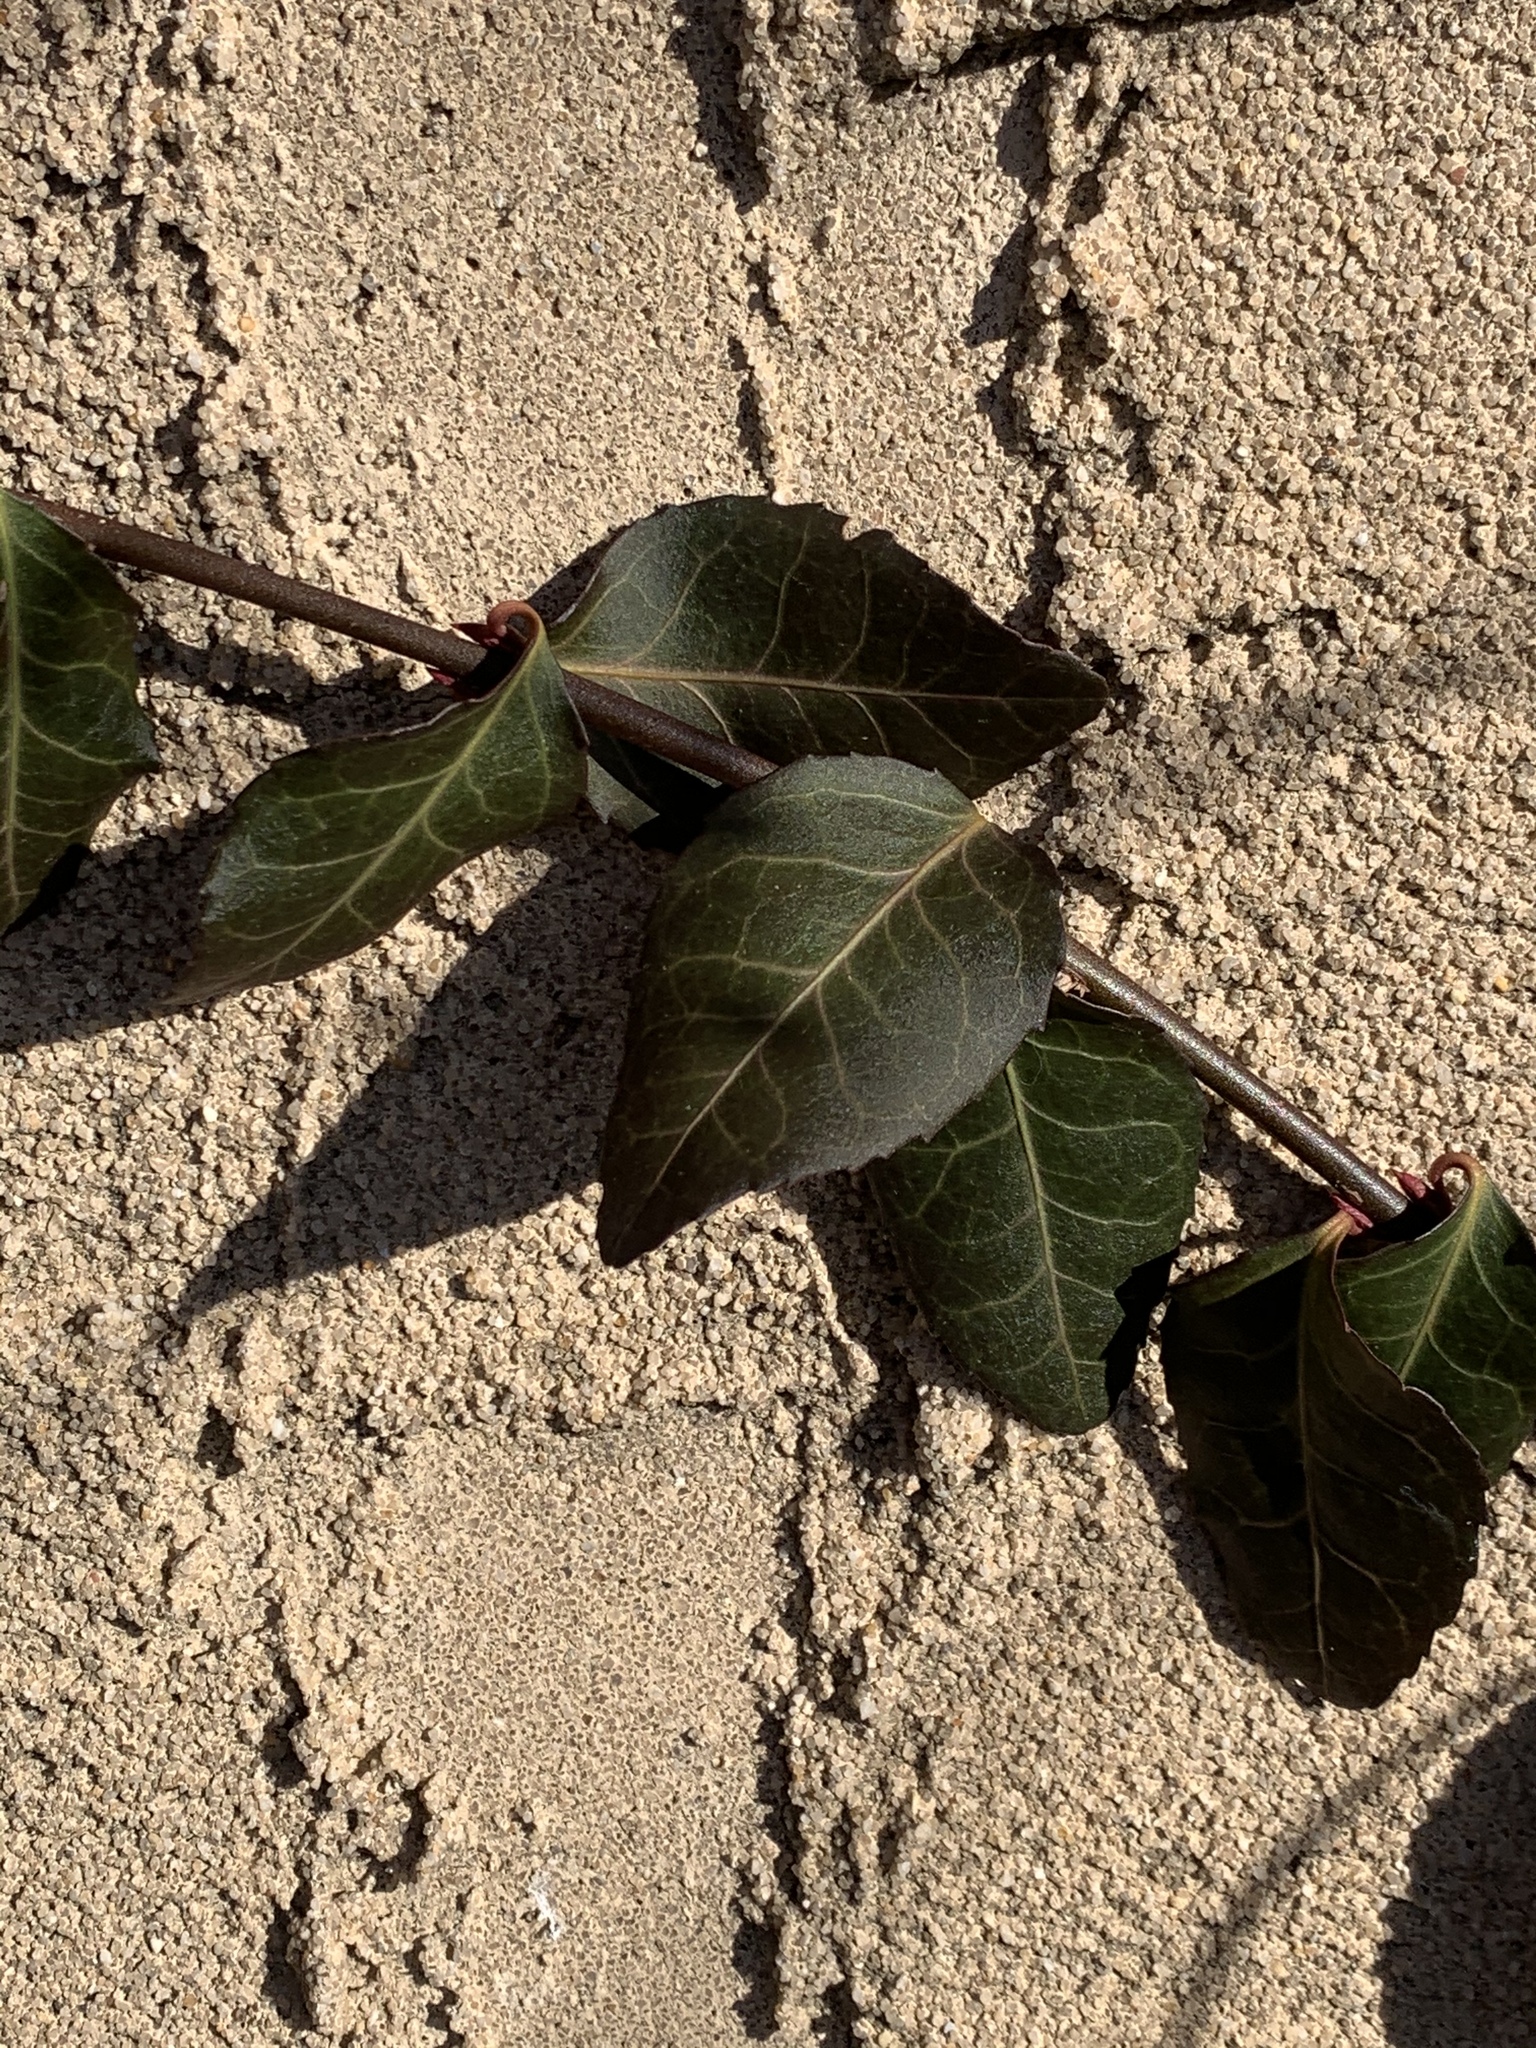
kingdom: Plantae
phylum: Tracheophyta
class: Magnoliopsida
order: Celastrales
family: Celastraceae
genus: Euonymus
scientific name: Euonymus fortunei
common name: Climbing euonymus
